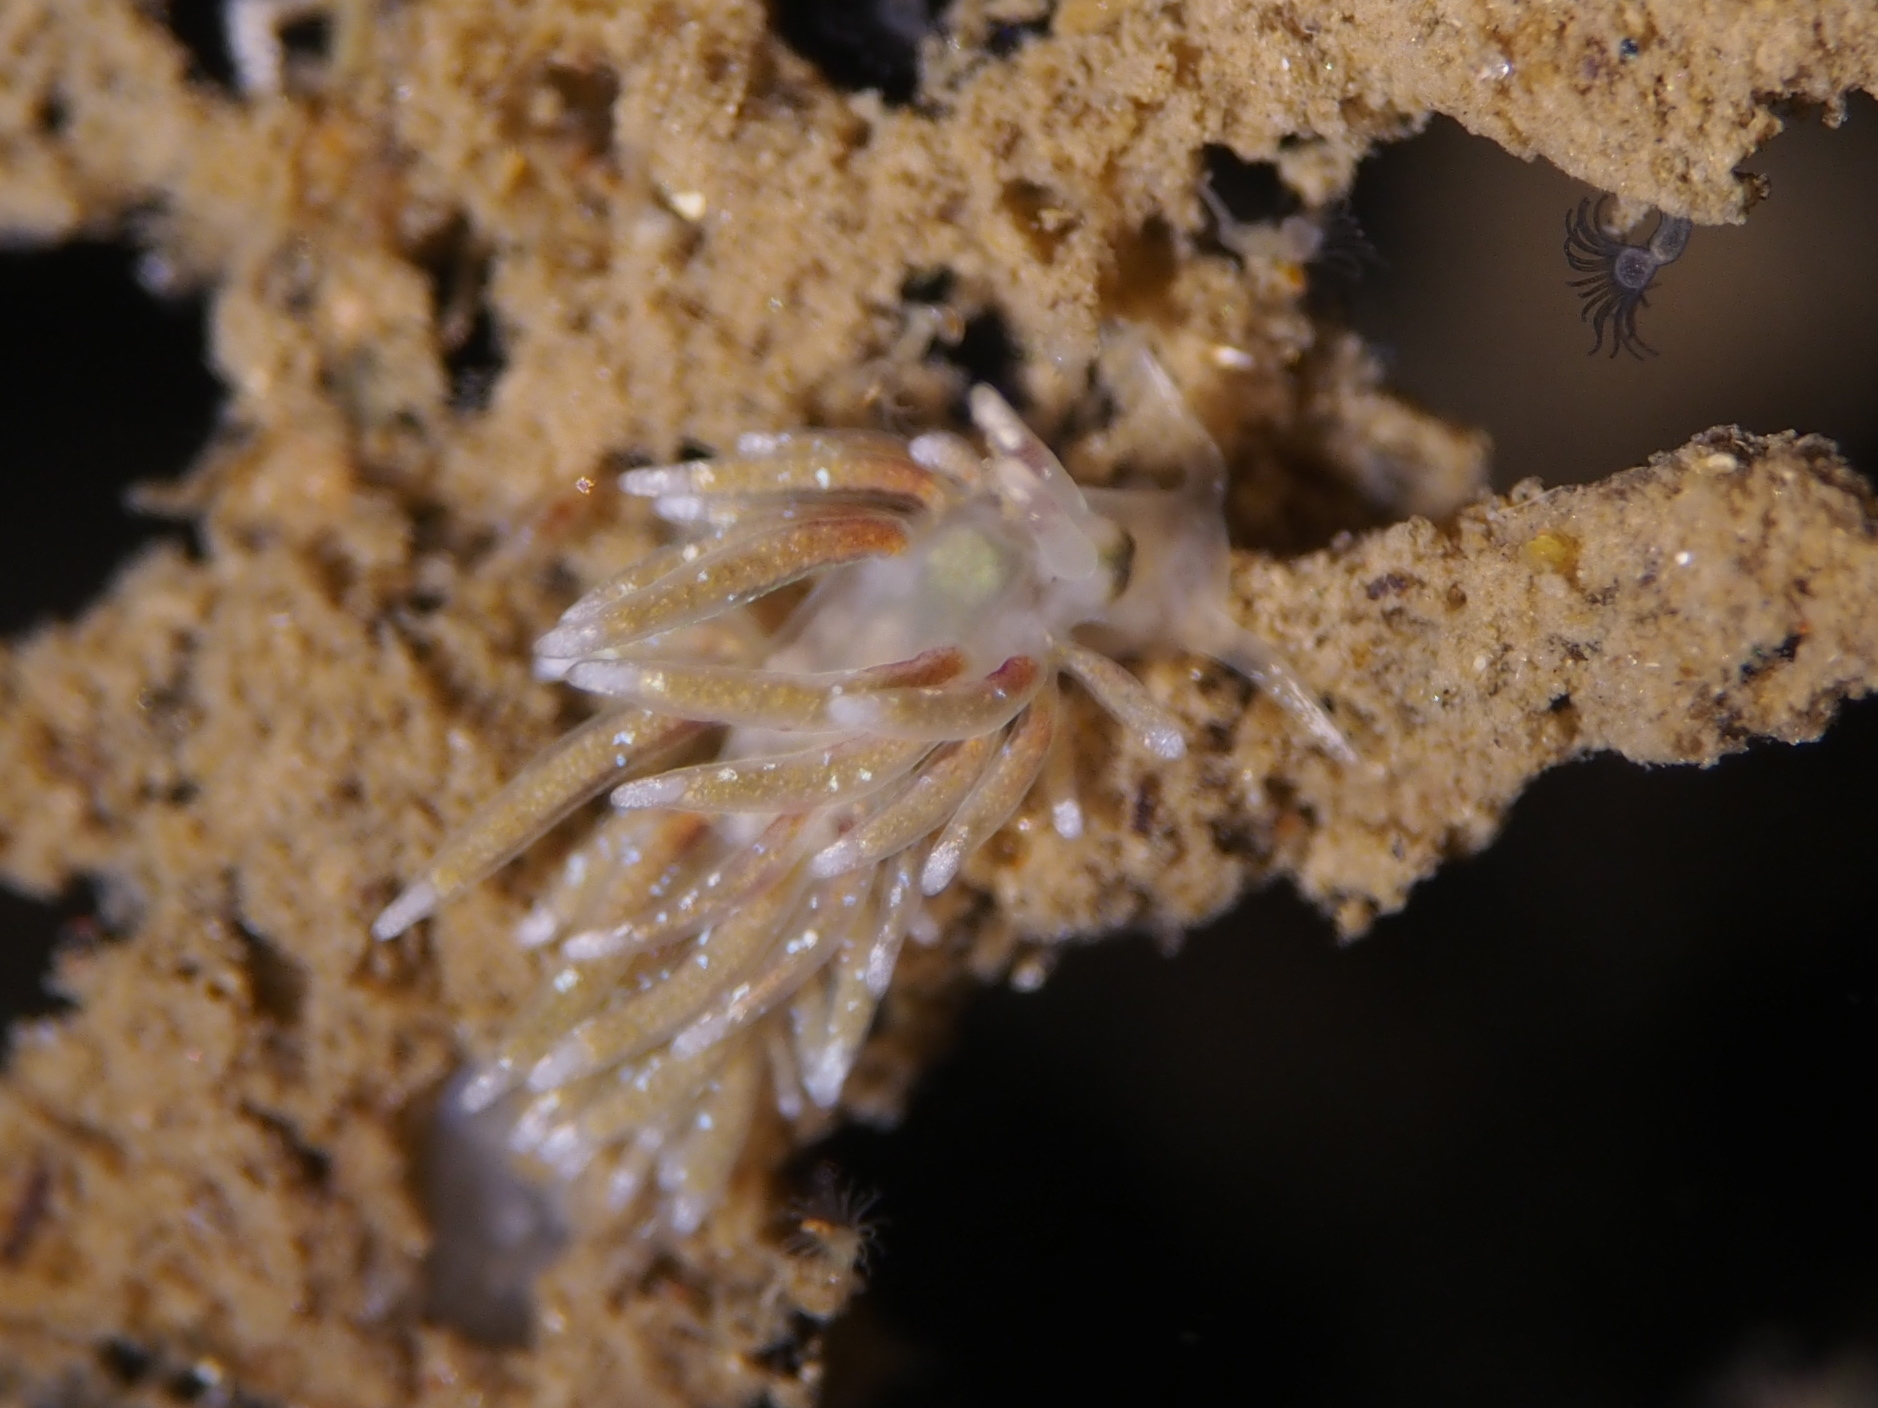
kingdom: Animalia
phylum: Mollusca
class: Gastropoda
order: Nudibranchia
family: Trinchesiidae
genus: Rubramoena
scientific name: Rubramoena rubescens
